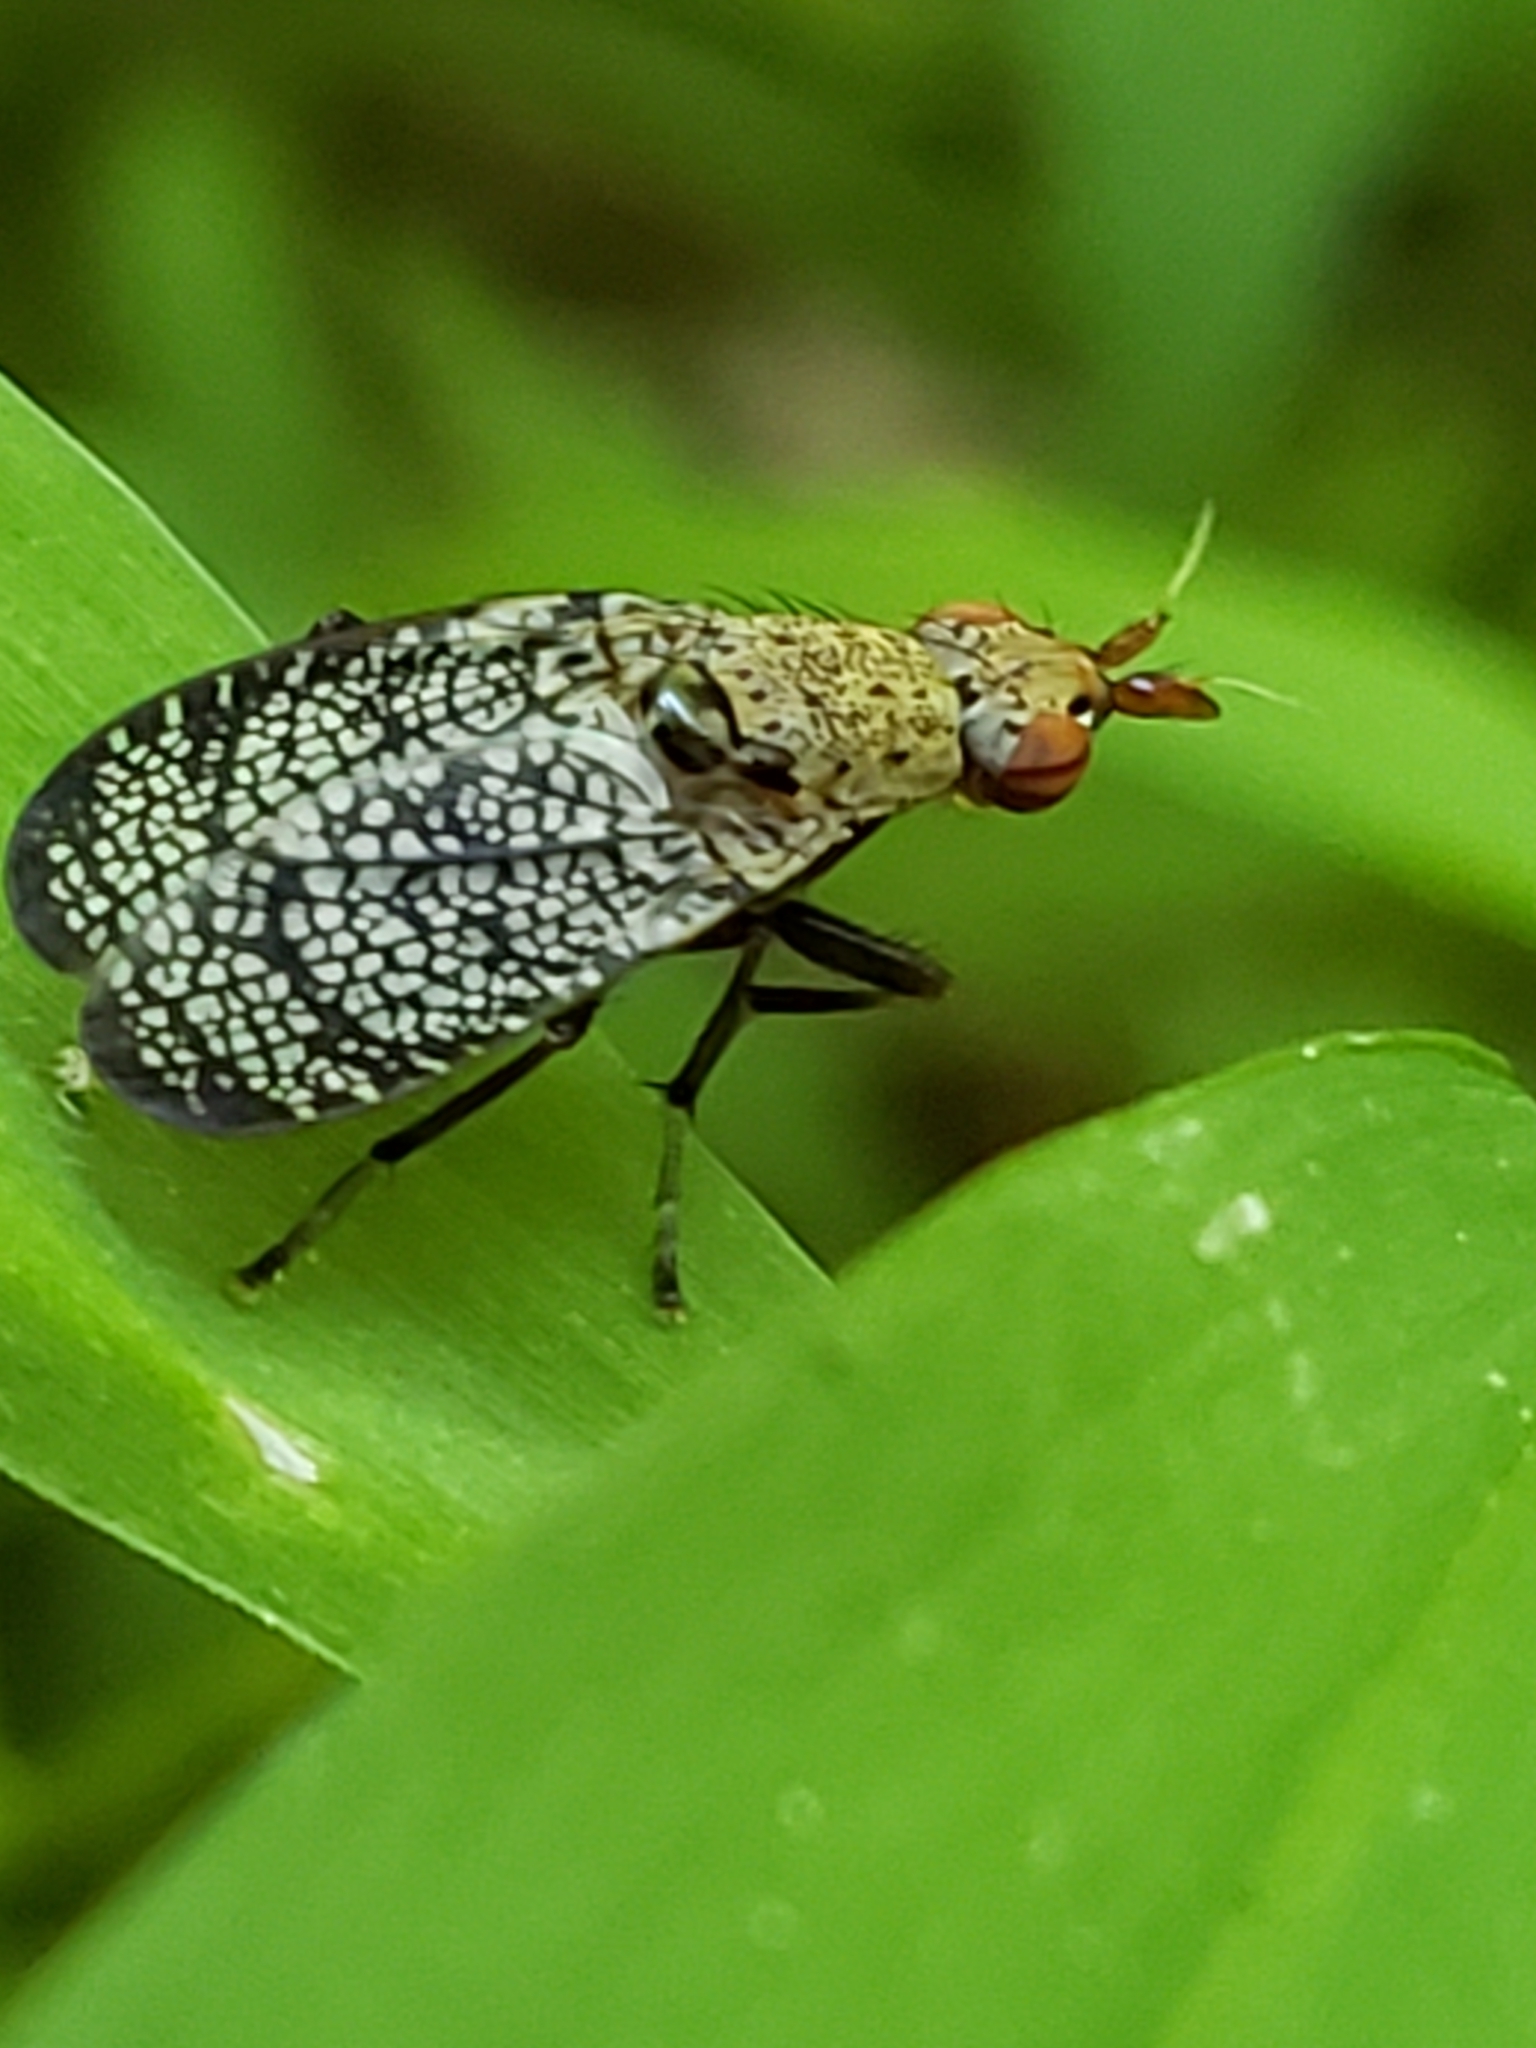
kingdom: Animalia
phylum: Arthropoda
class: Insecta
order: Diptera
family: Sciomyzidae
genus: Euthycera
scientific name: Euthycera flavescens
